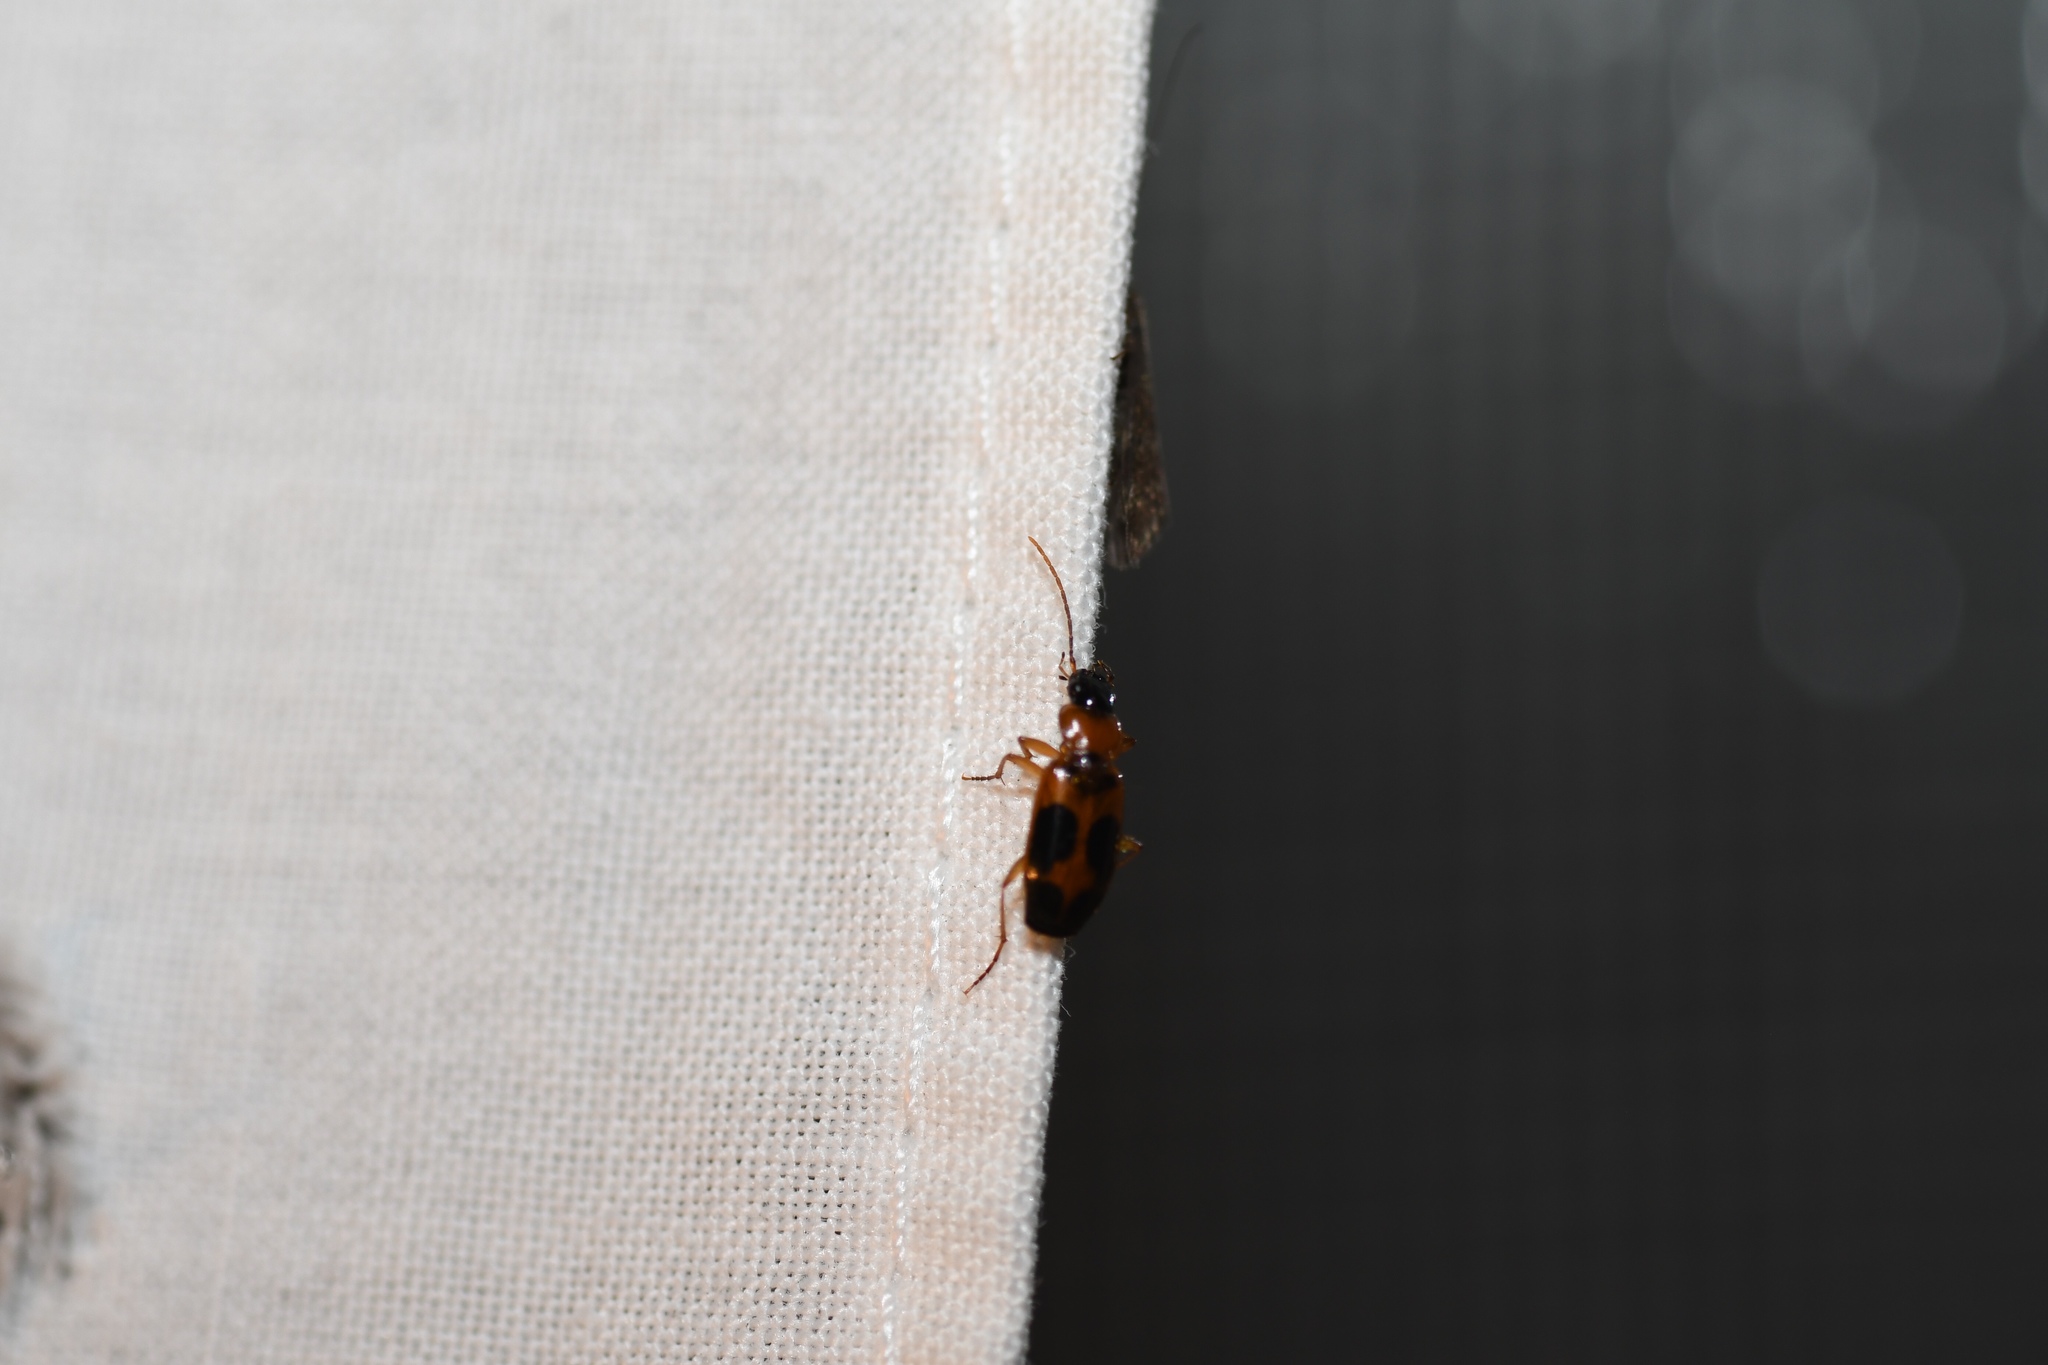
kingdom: Animalia
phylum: Arthropoda
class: Insecta
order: Coleoptera
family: Carabidae
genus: Badister
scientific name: Badister neopulchellus
